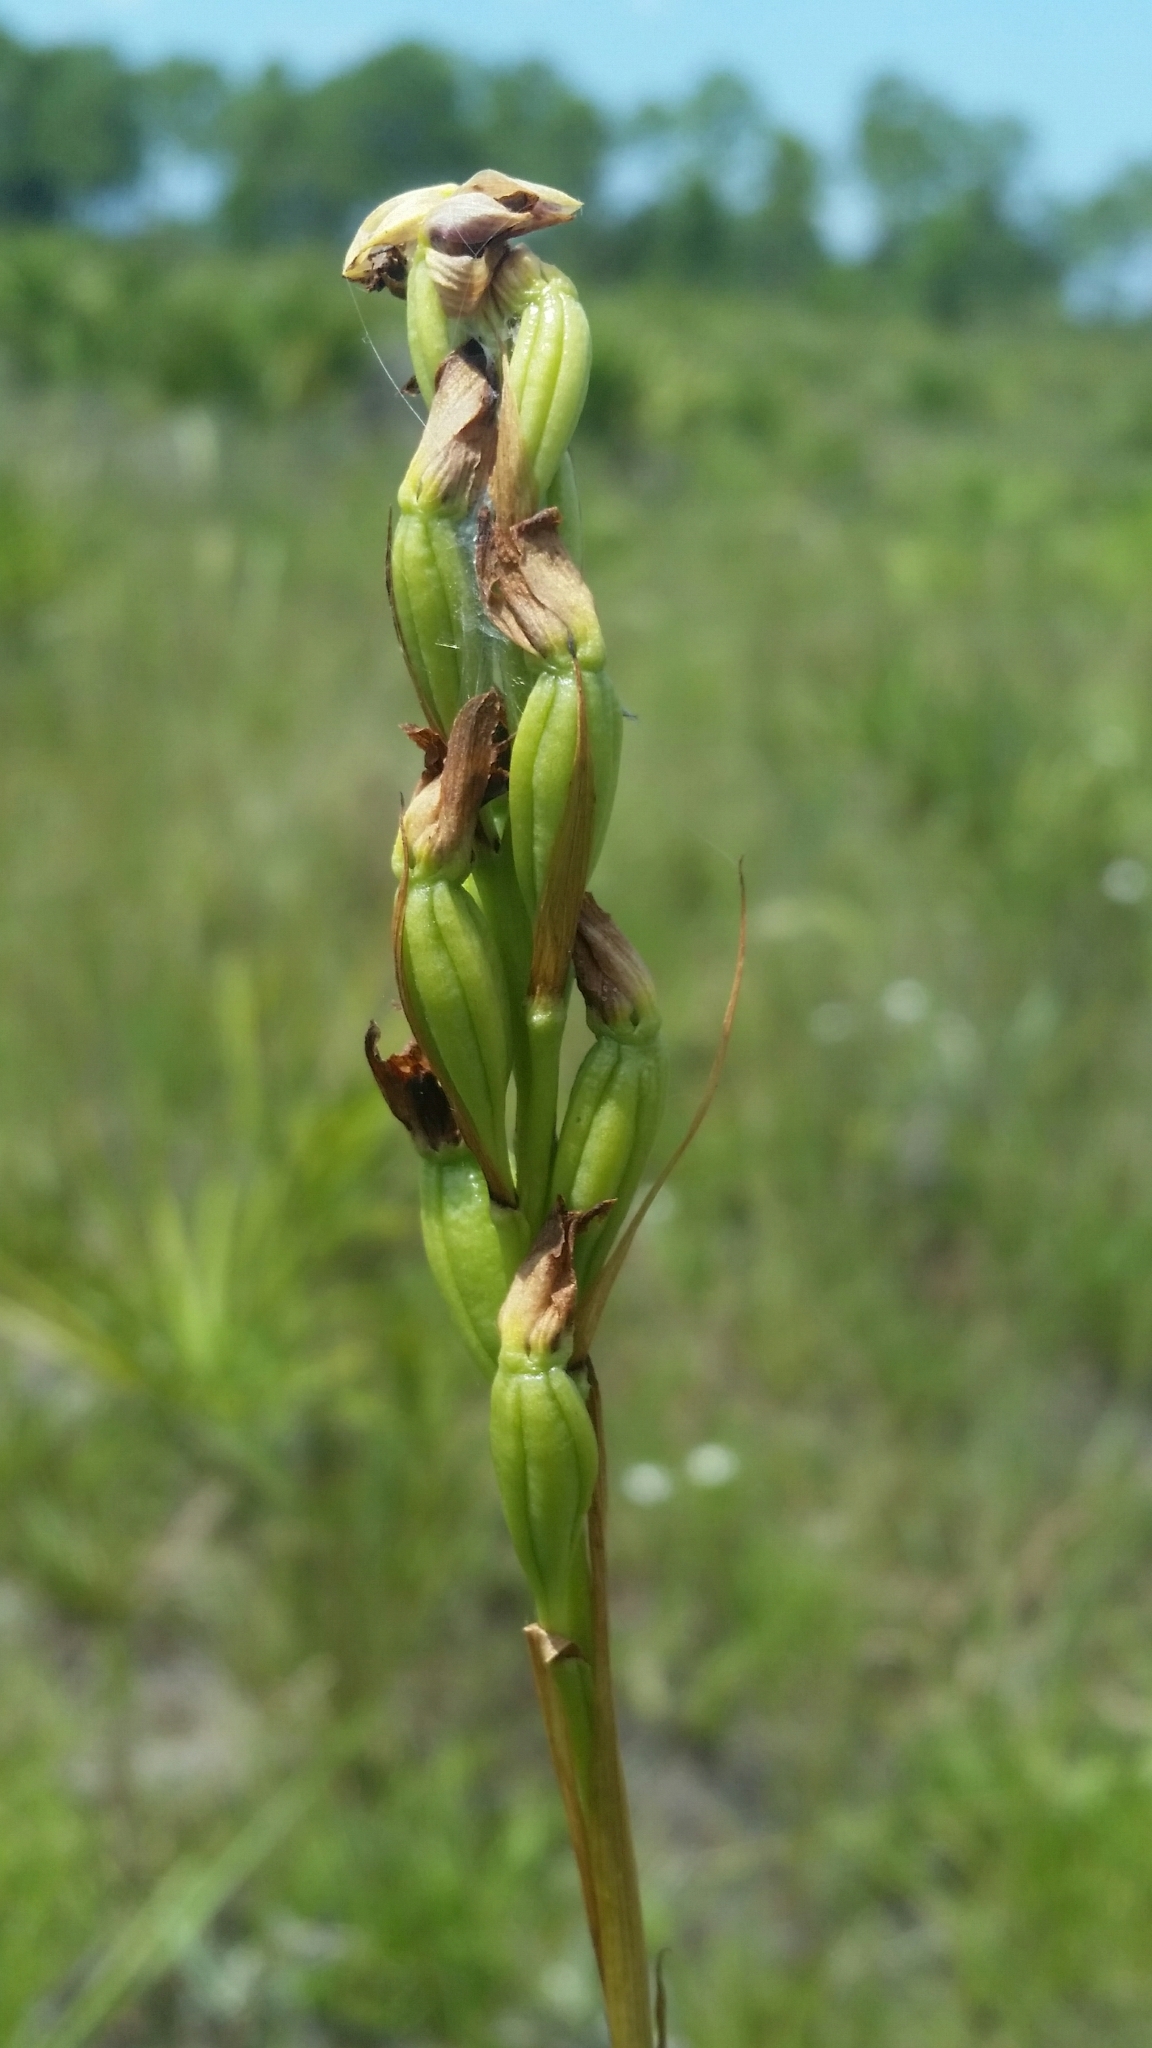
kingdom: Plantae
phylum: Tracheophyta
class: Liliopsida
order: Asparagales
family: Orchidaceae
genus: Eulophia
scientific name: Eulophia ecristata
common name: Giant orchid
